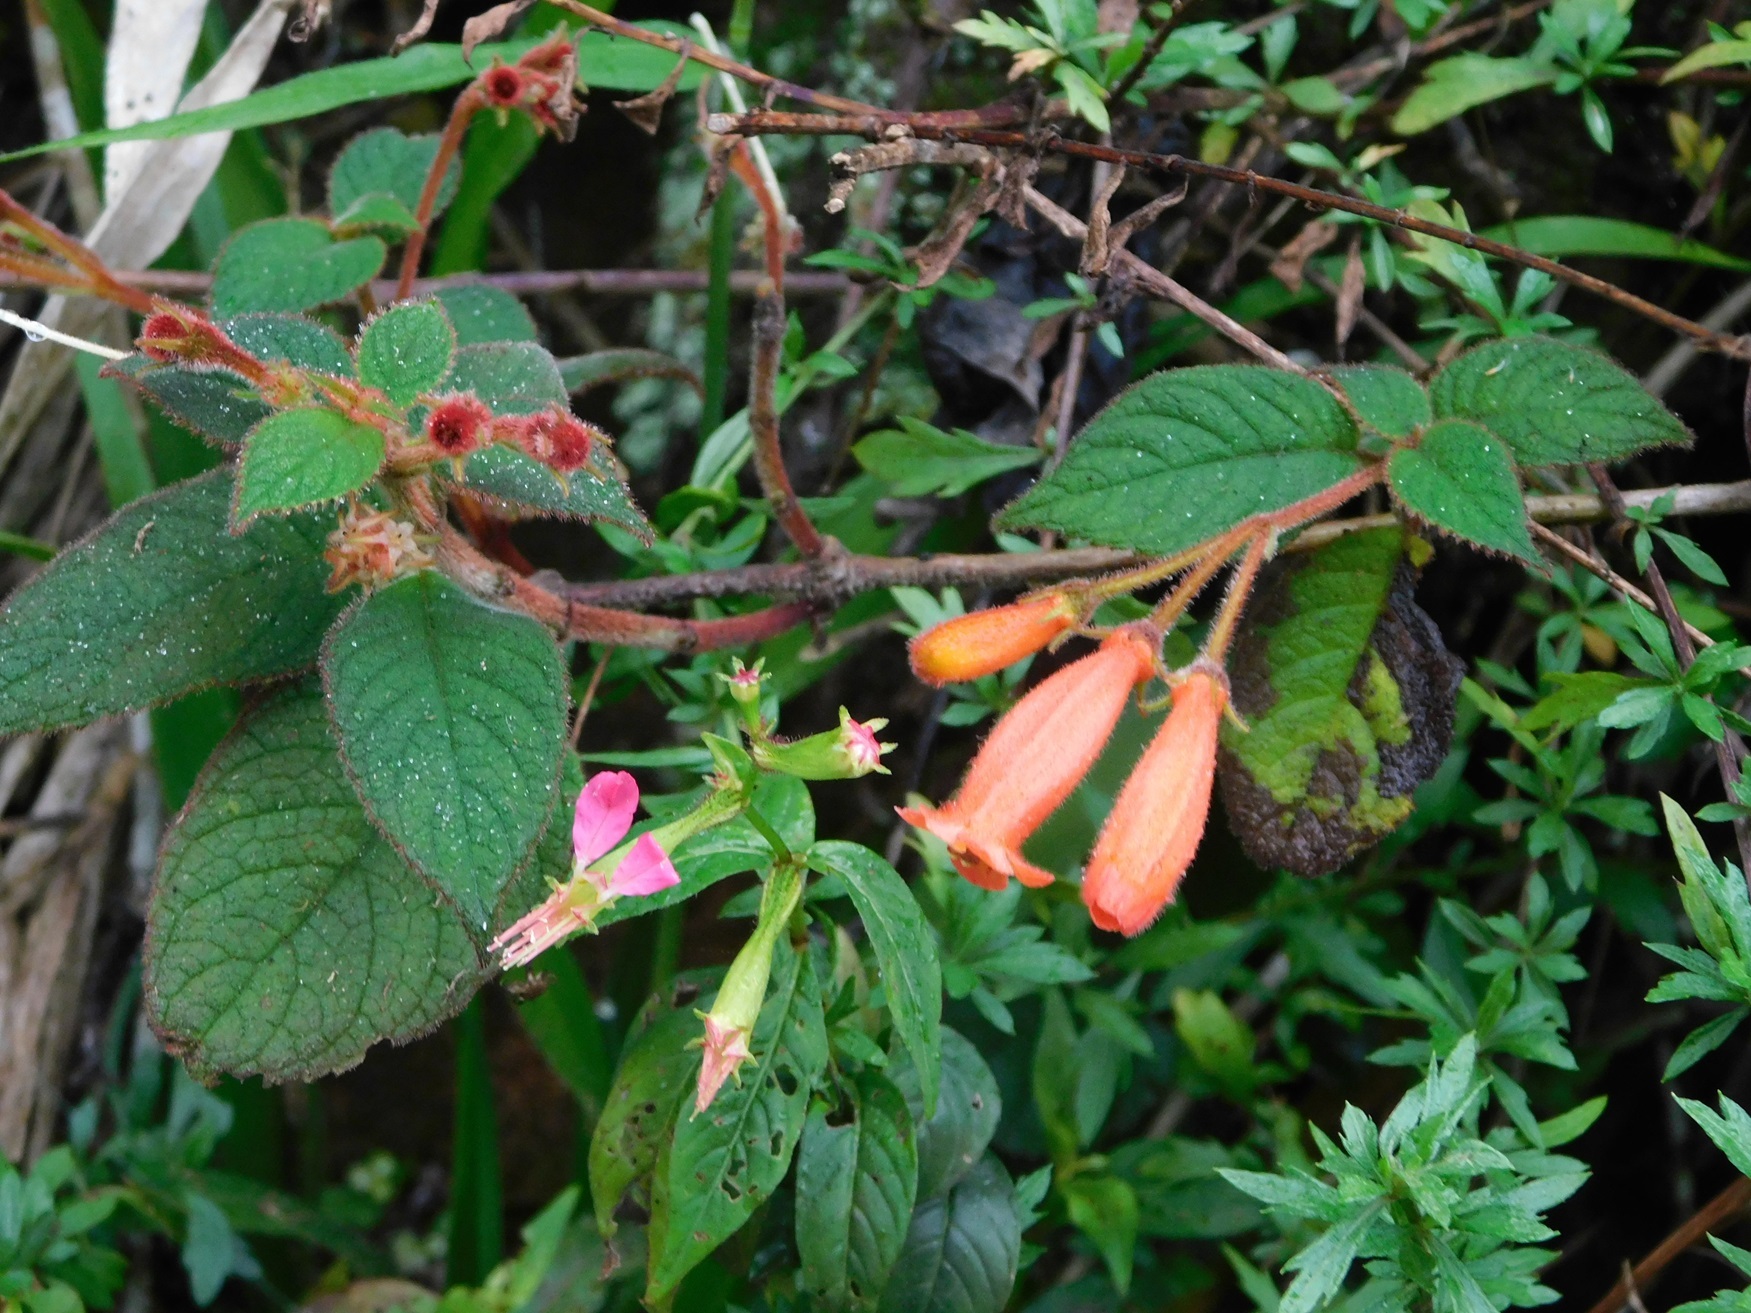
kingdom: Plantae
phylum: Tracheophyta
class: Magnoliopsida
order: Lamiales
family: Gesneriaceae
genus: Moussonia
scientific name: Moussonia elegans
